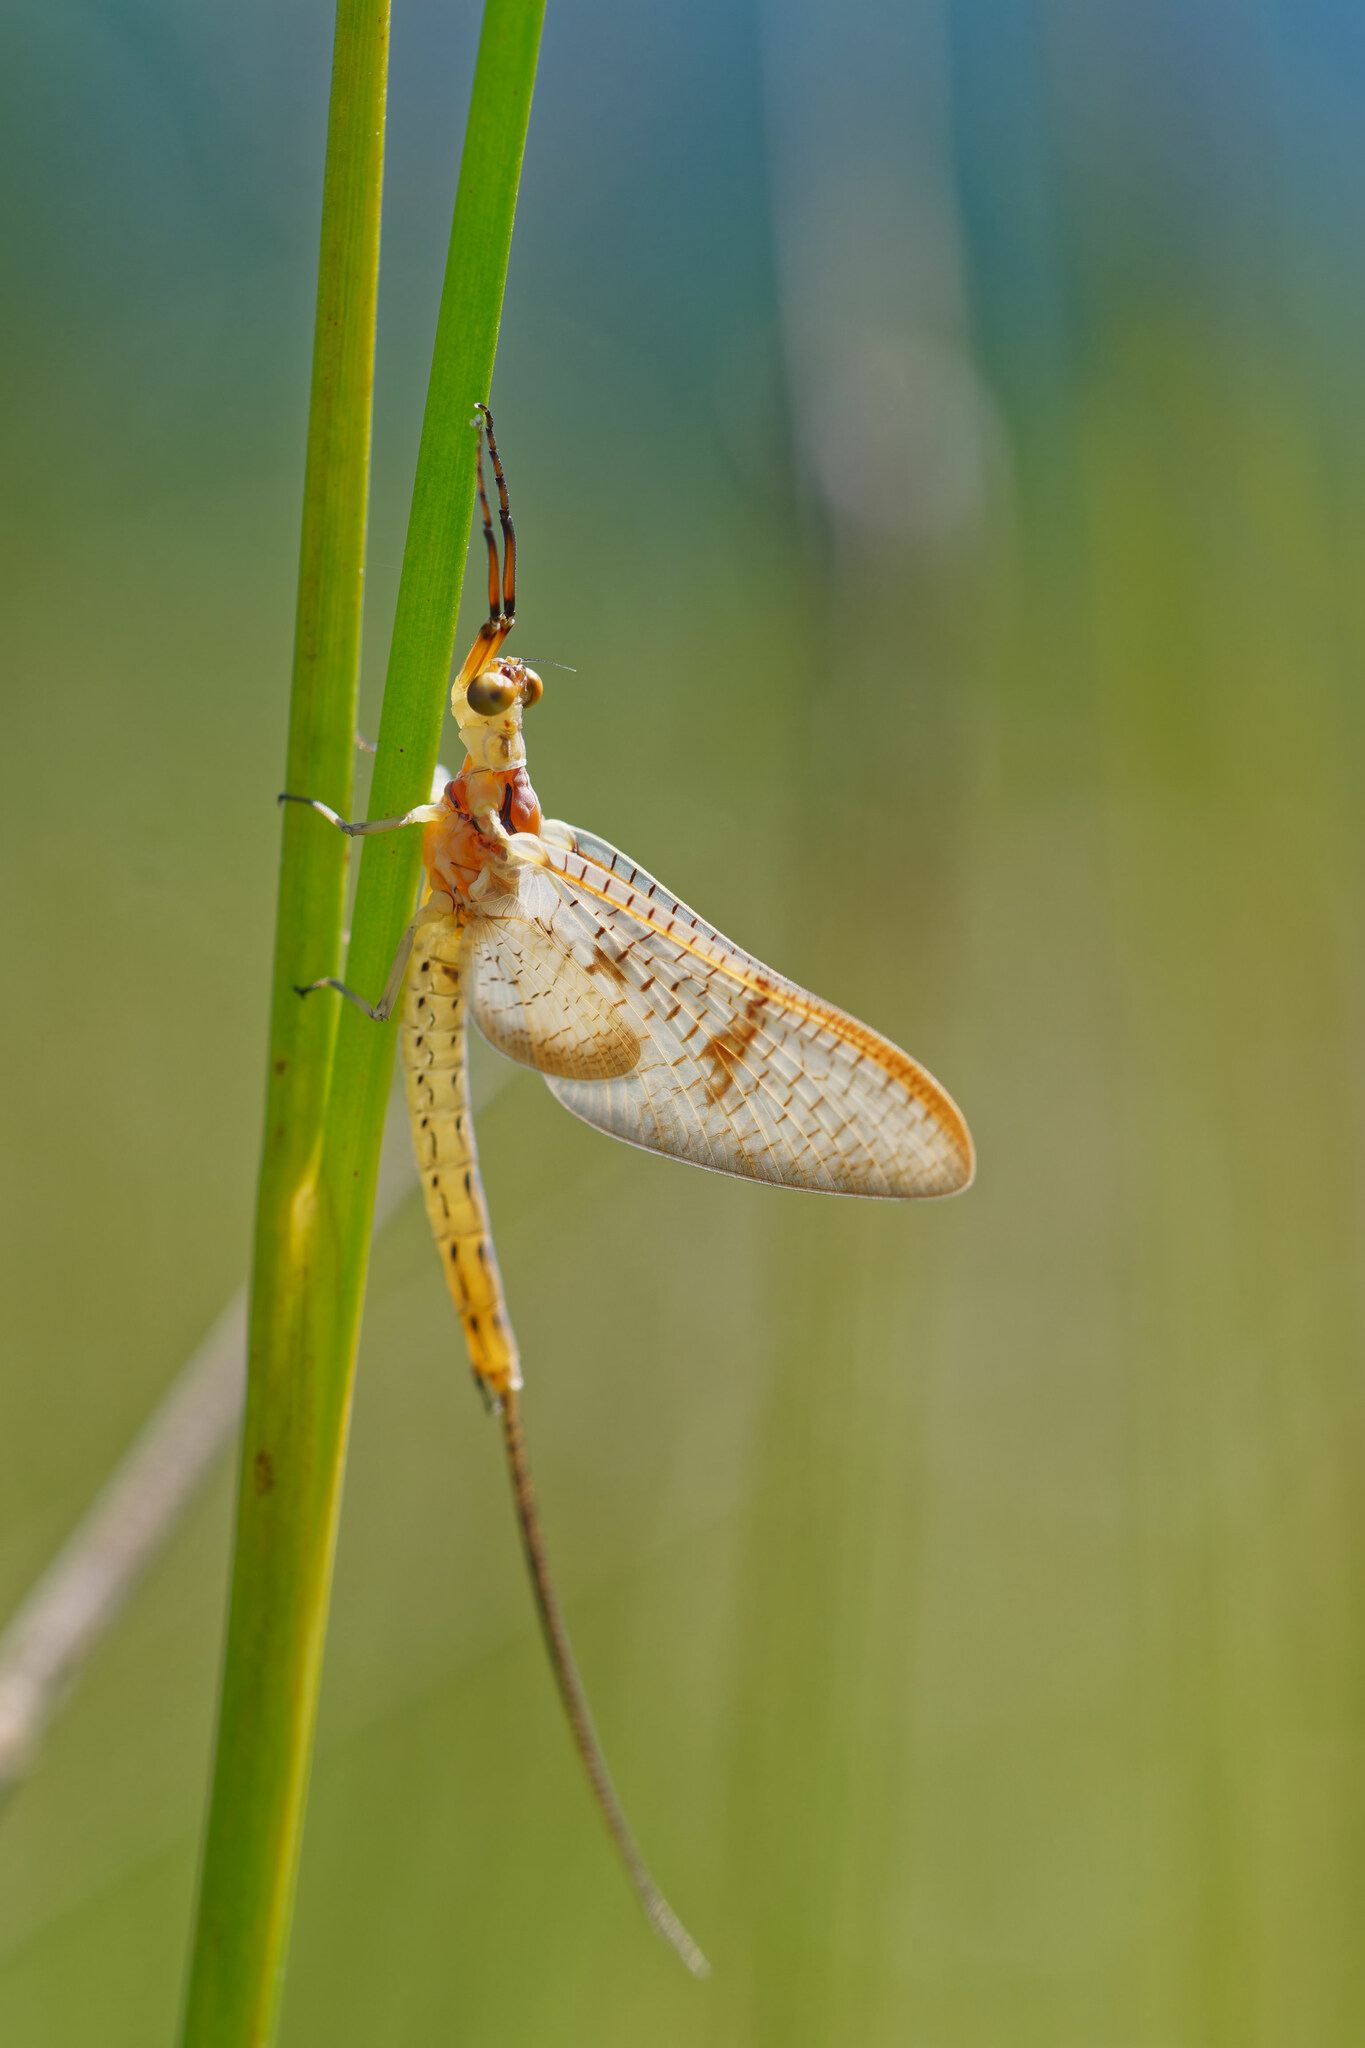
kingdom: Animalia
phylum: Arthropoda
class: Insecta
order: Ephemeroptera
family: Ephemeridae
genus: Ephemera
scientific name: Ephemera glaucops
